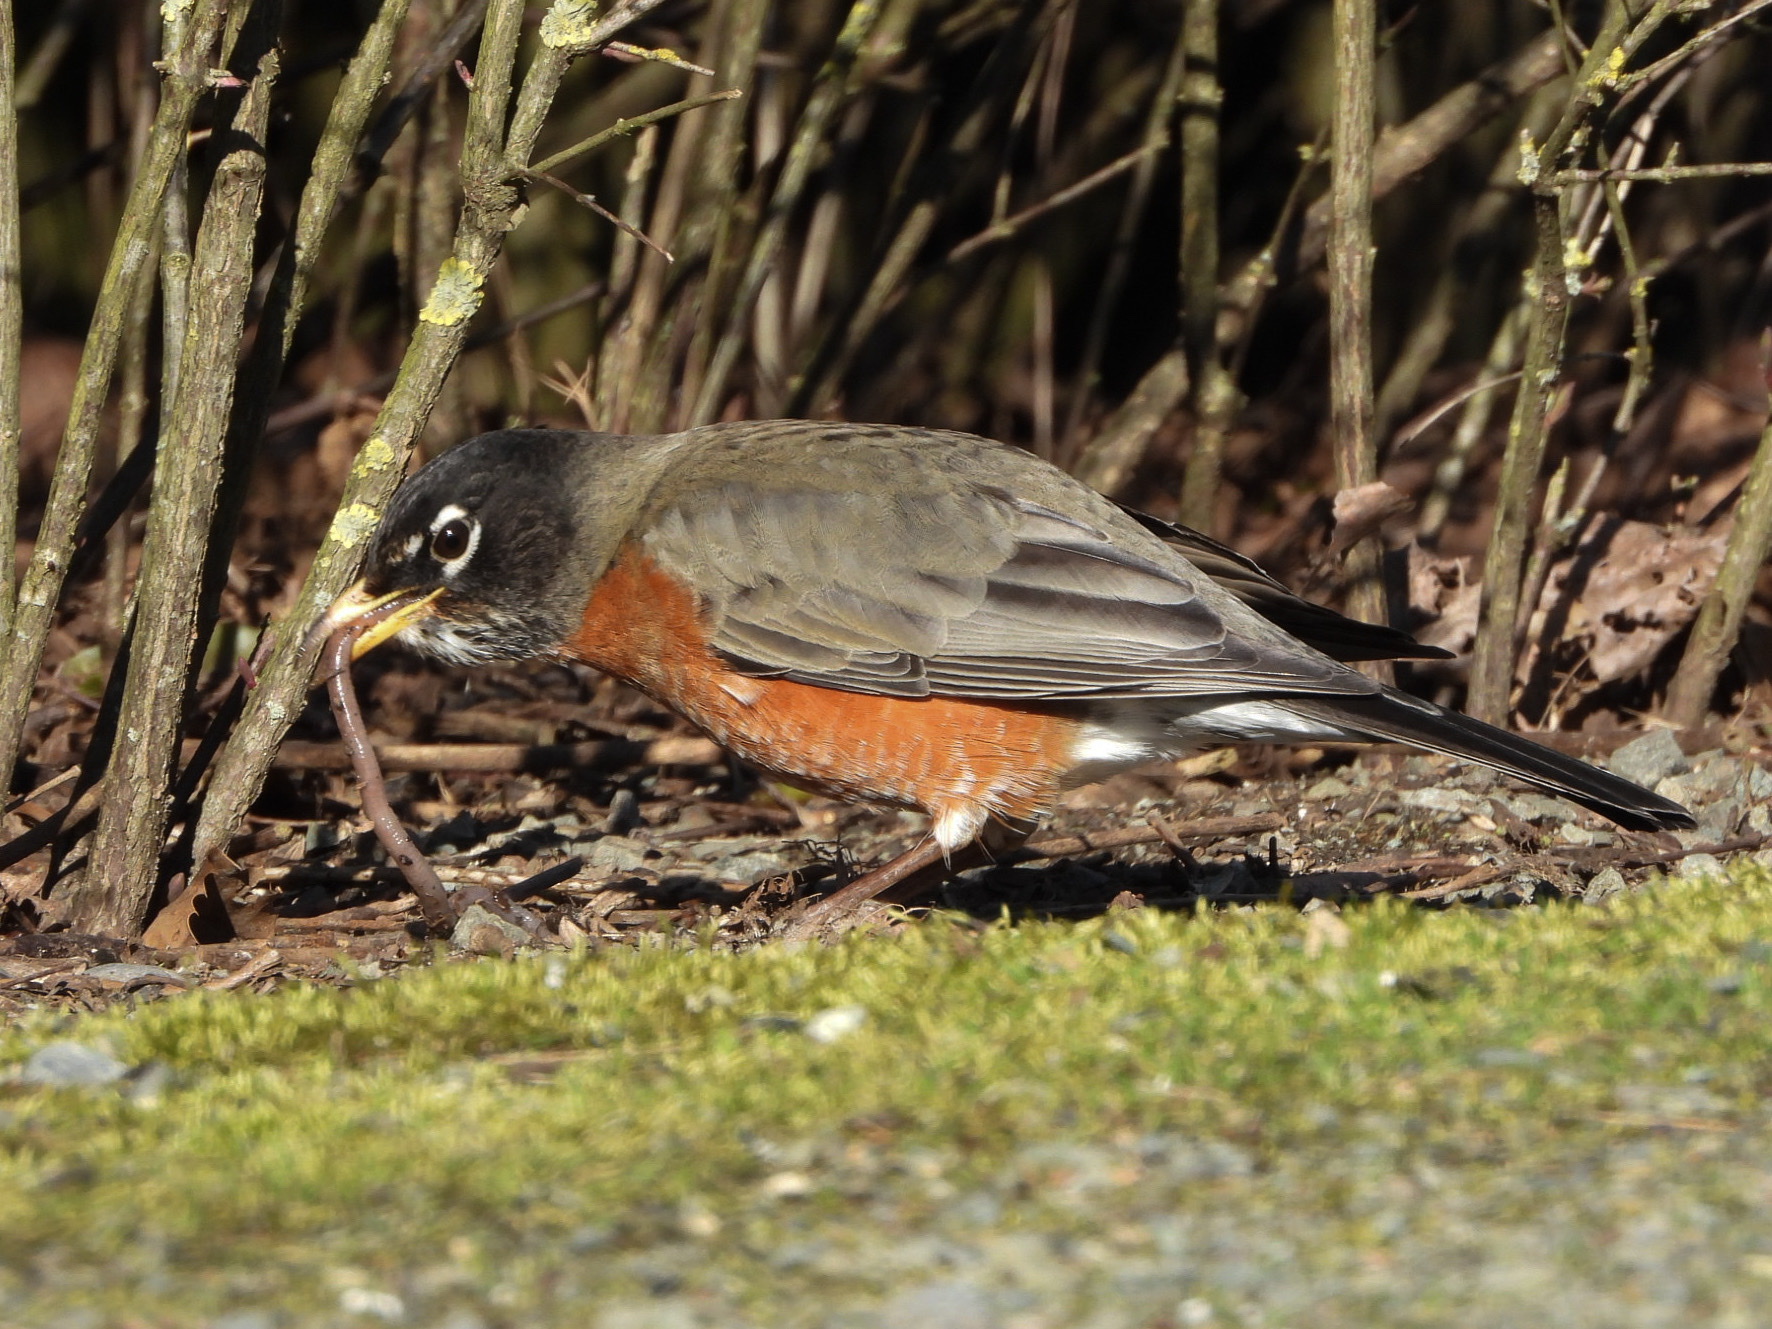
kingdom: Animalia
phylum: Chordata
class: Aves
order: Passeriformes
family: Turdidae
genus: Turdus
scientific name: Turdus migratorius
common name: American robin
